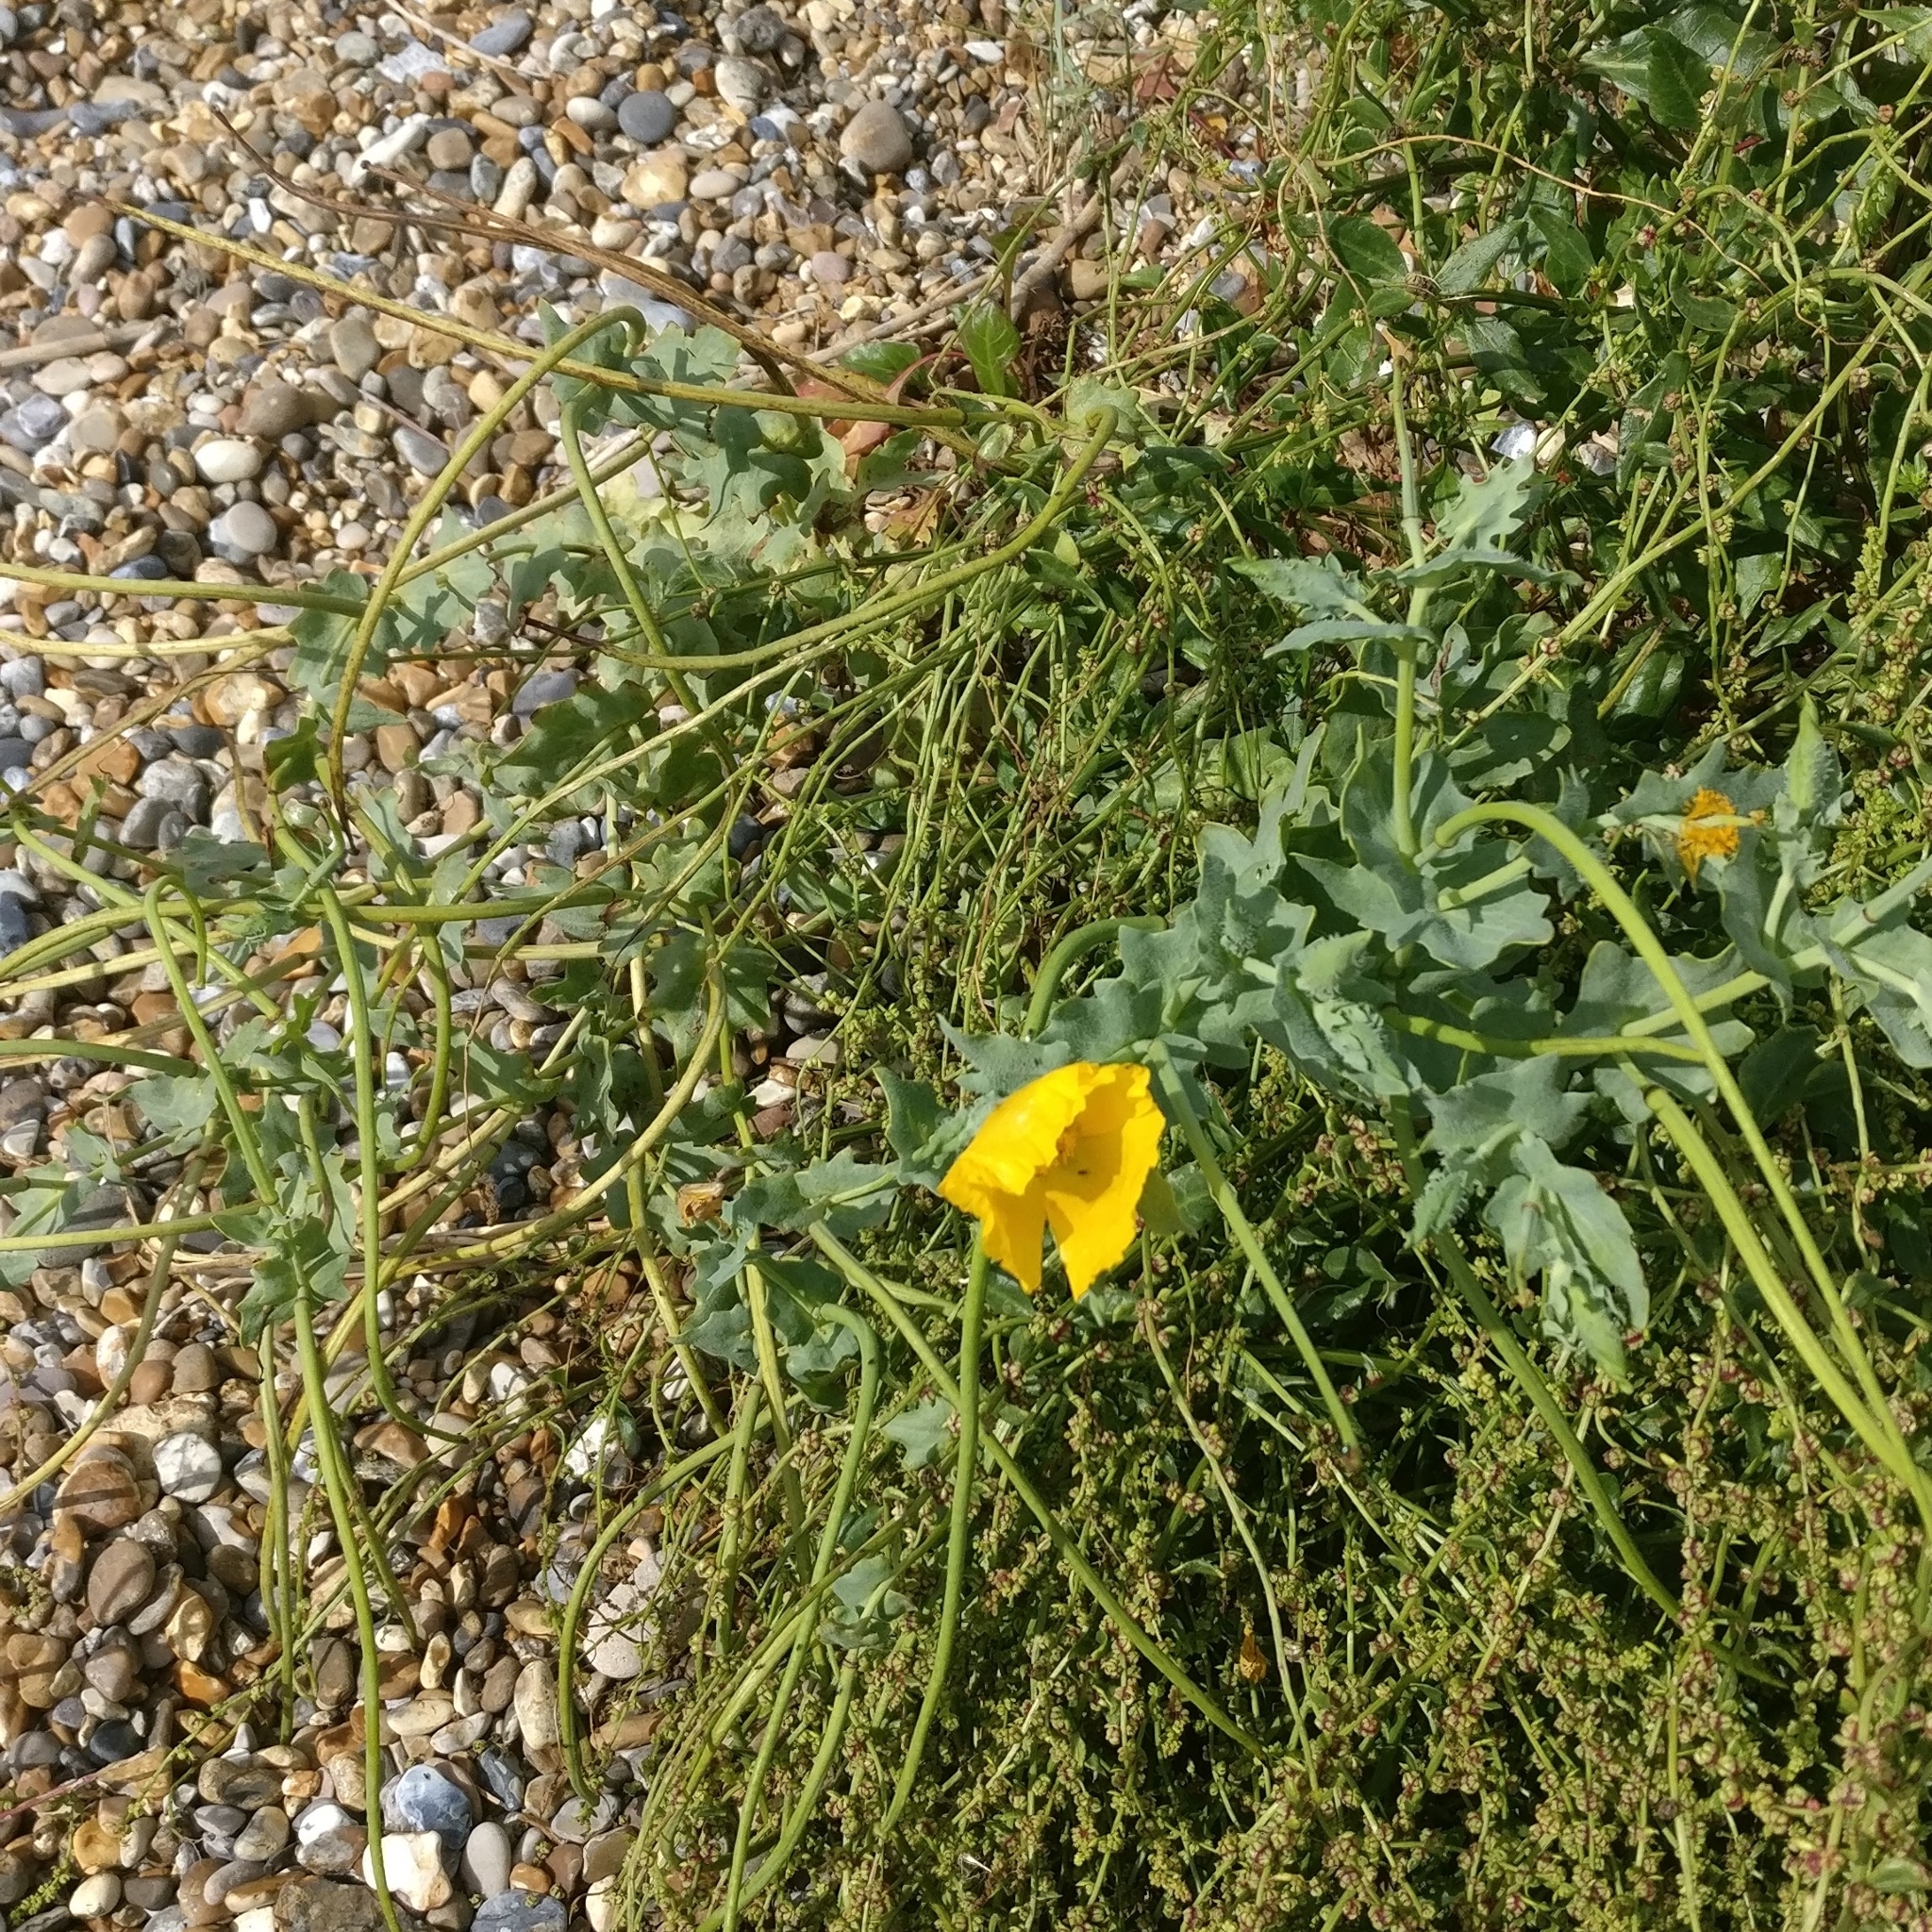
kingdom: Plantae
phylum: Tracheophyta
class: Magnoliopsida
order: Ranunculales
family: Papaveraceae
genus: Glaucium
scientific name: Glaucium flavum
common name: Yellow horned-poppy
